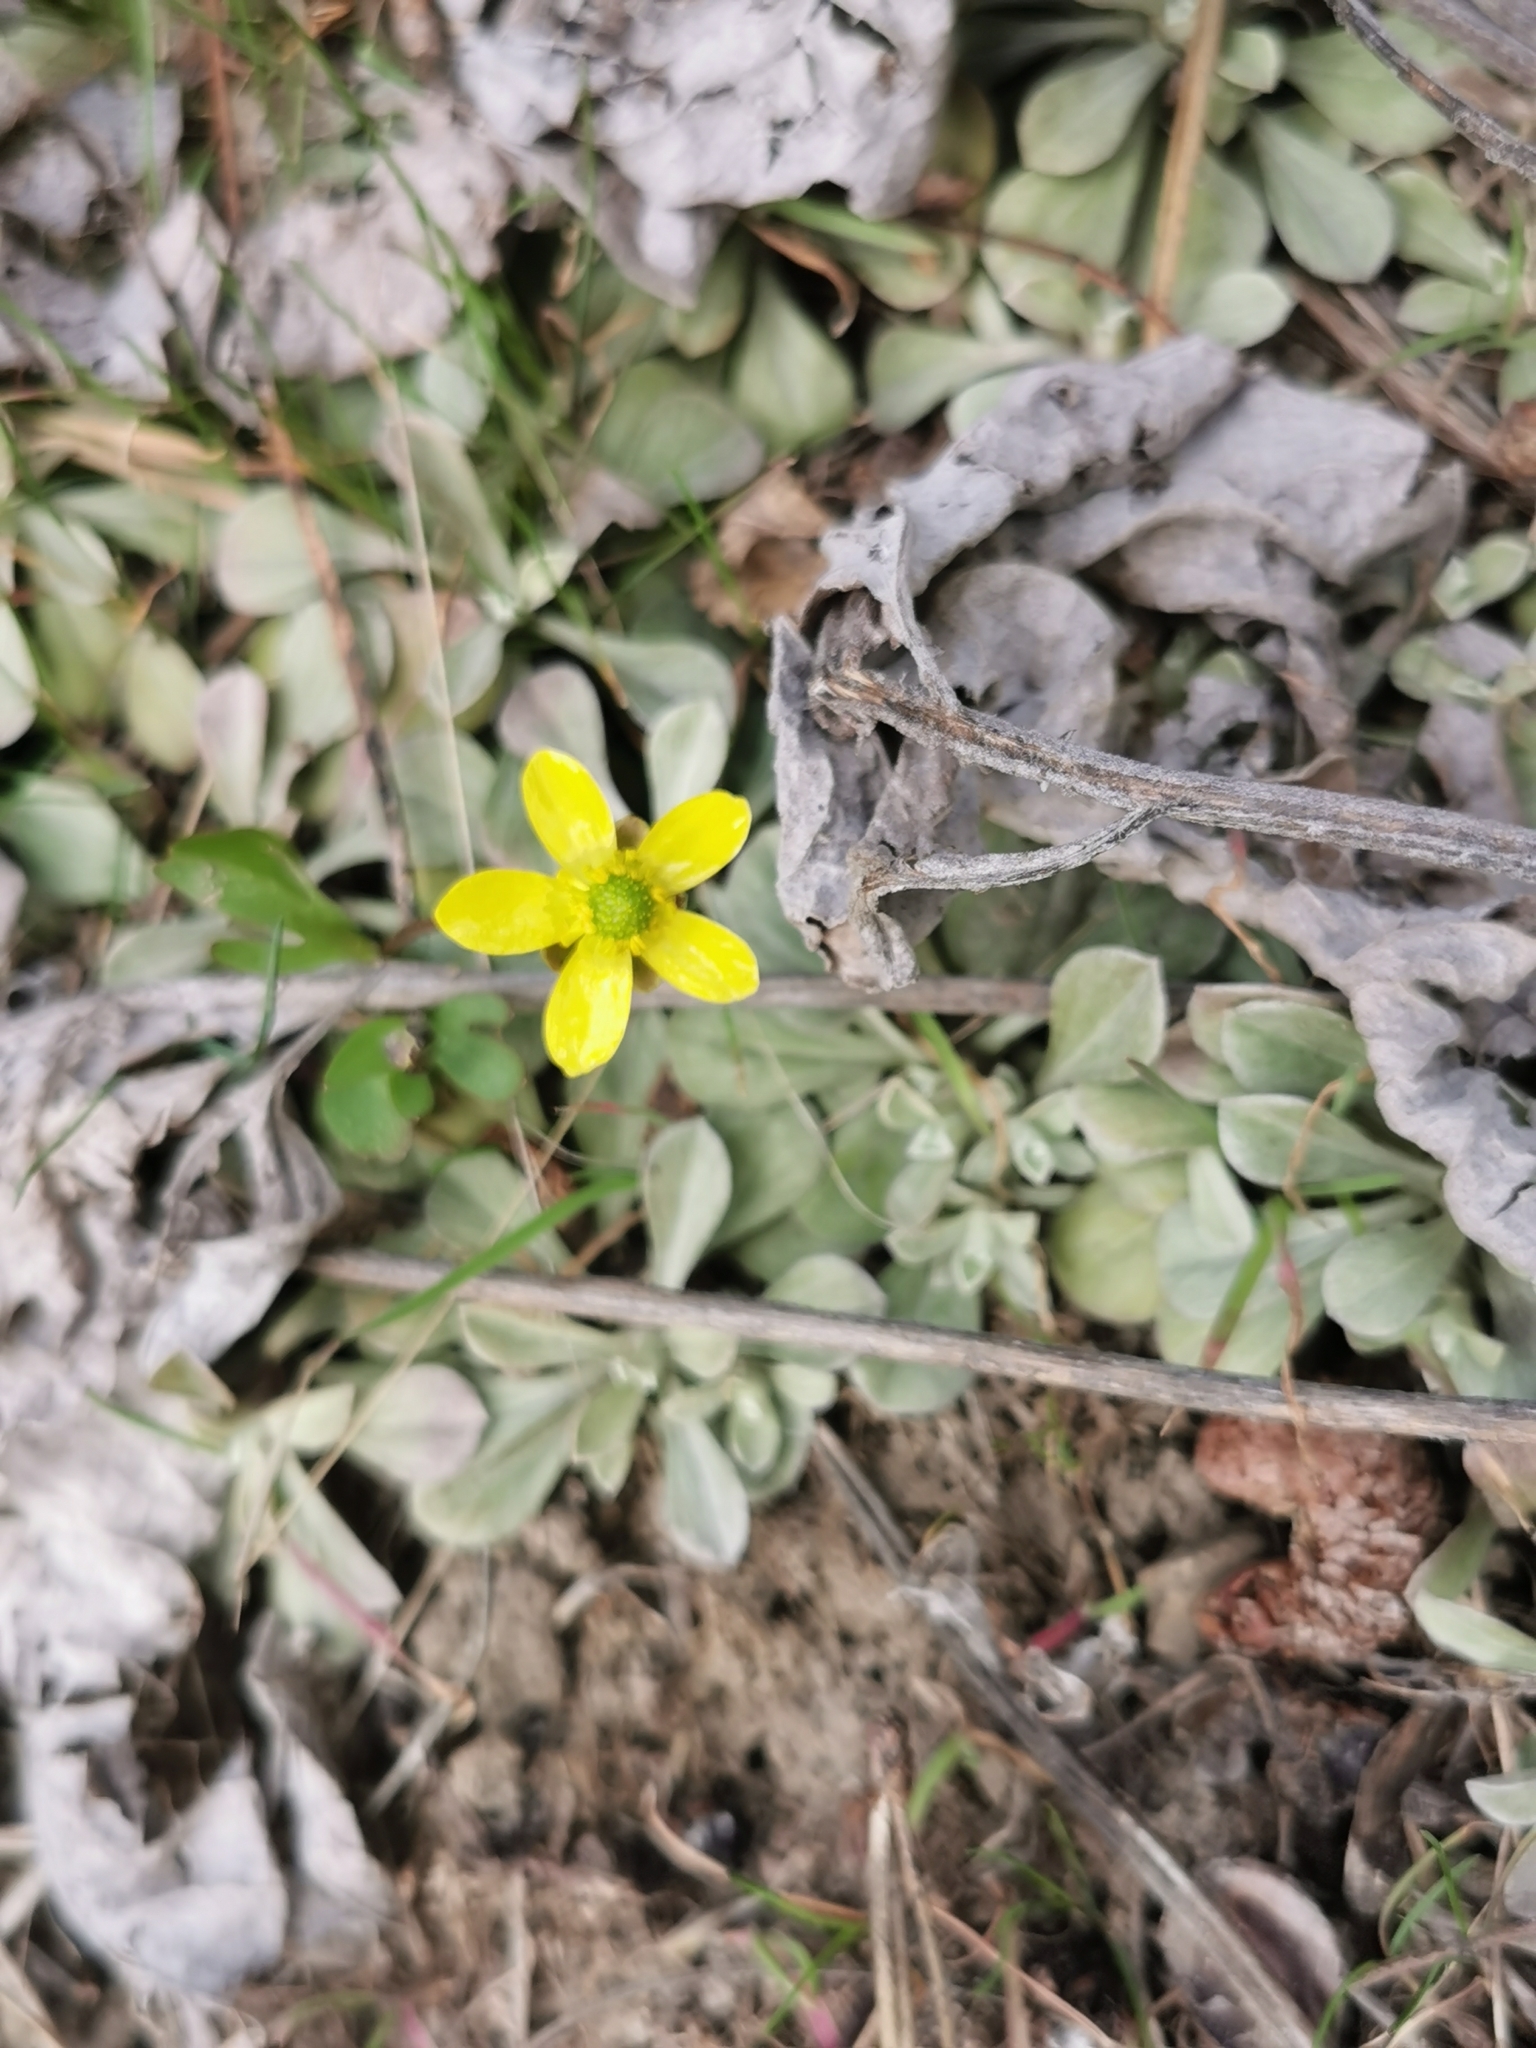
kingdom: Plantae
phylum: Tracheophyta
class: Magnoliopsida
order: Ranunculales
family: Ranunculaceae
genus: Ranunculus
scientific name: Ranunculus glaberrimus
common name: Sagebrush buttercup
